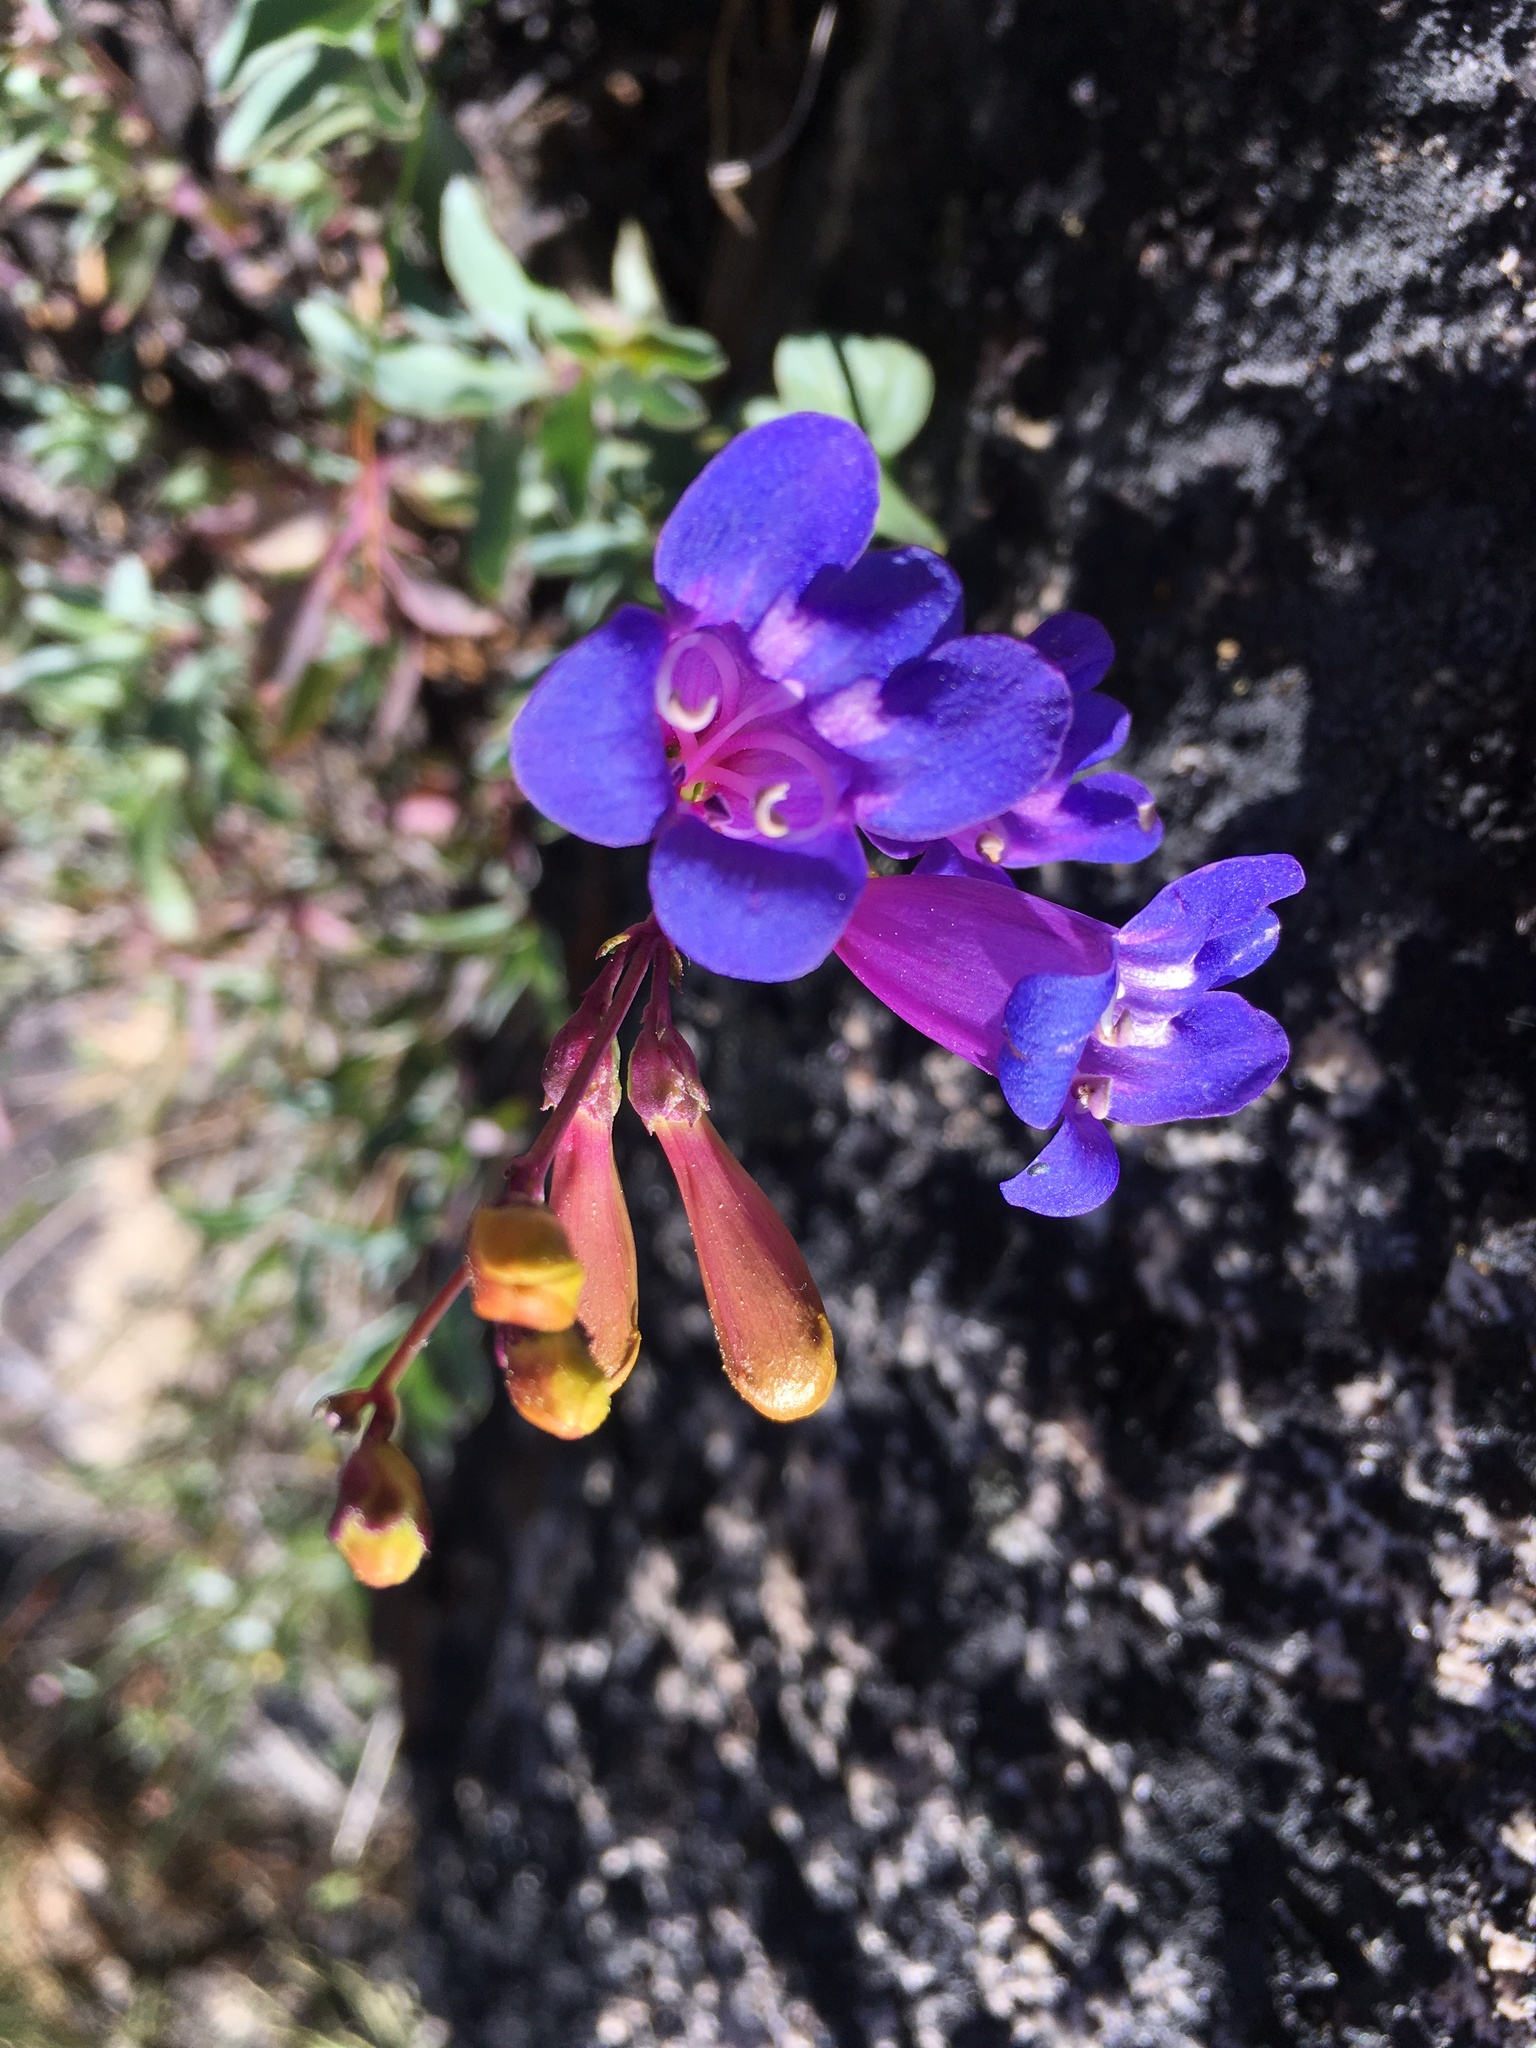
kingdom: Plantae
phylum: Tracheophyta
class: Magnoliopsida
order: Lamiales
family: Plantaginaceae
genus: Penstemon
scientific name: Penstemon azureus
